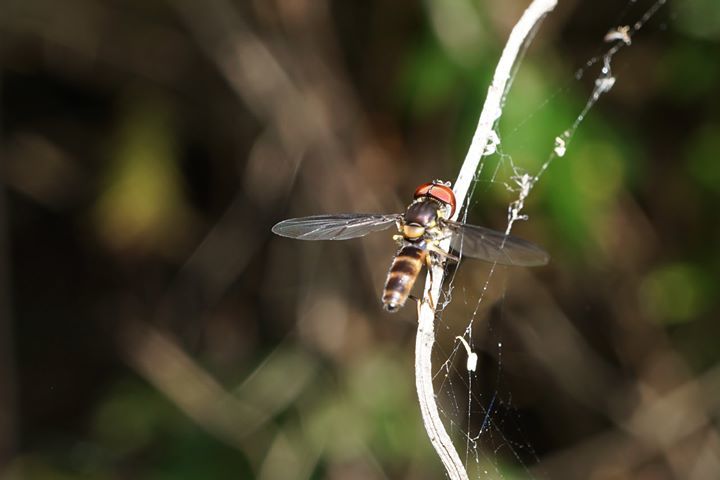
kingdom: Animalia
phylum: Arthropoda
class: Insecta
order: Diptera
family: Syrphidae
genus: Ocyptamus
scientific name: Ocyptamus antiphates
